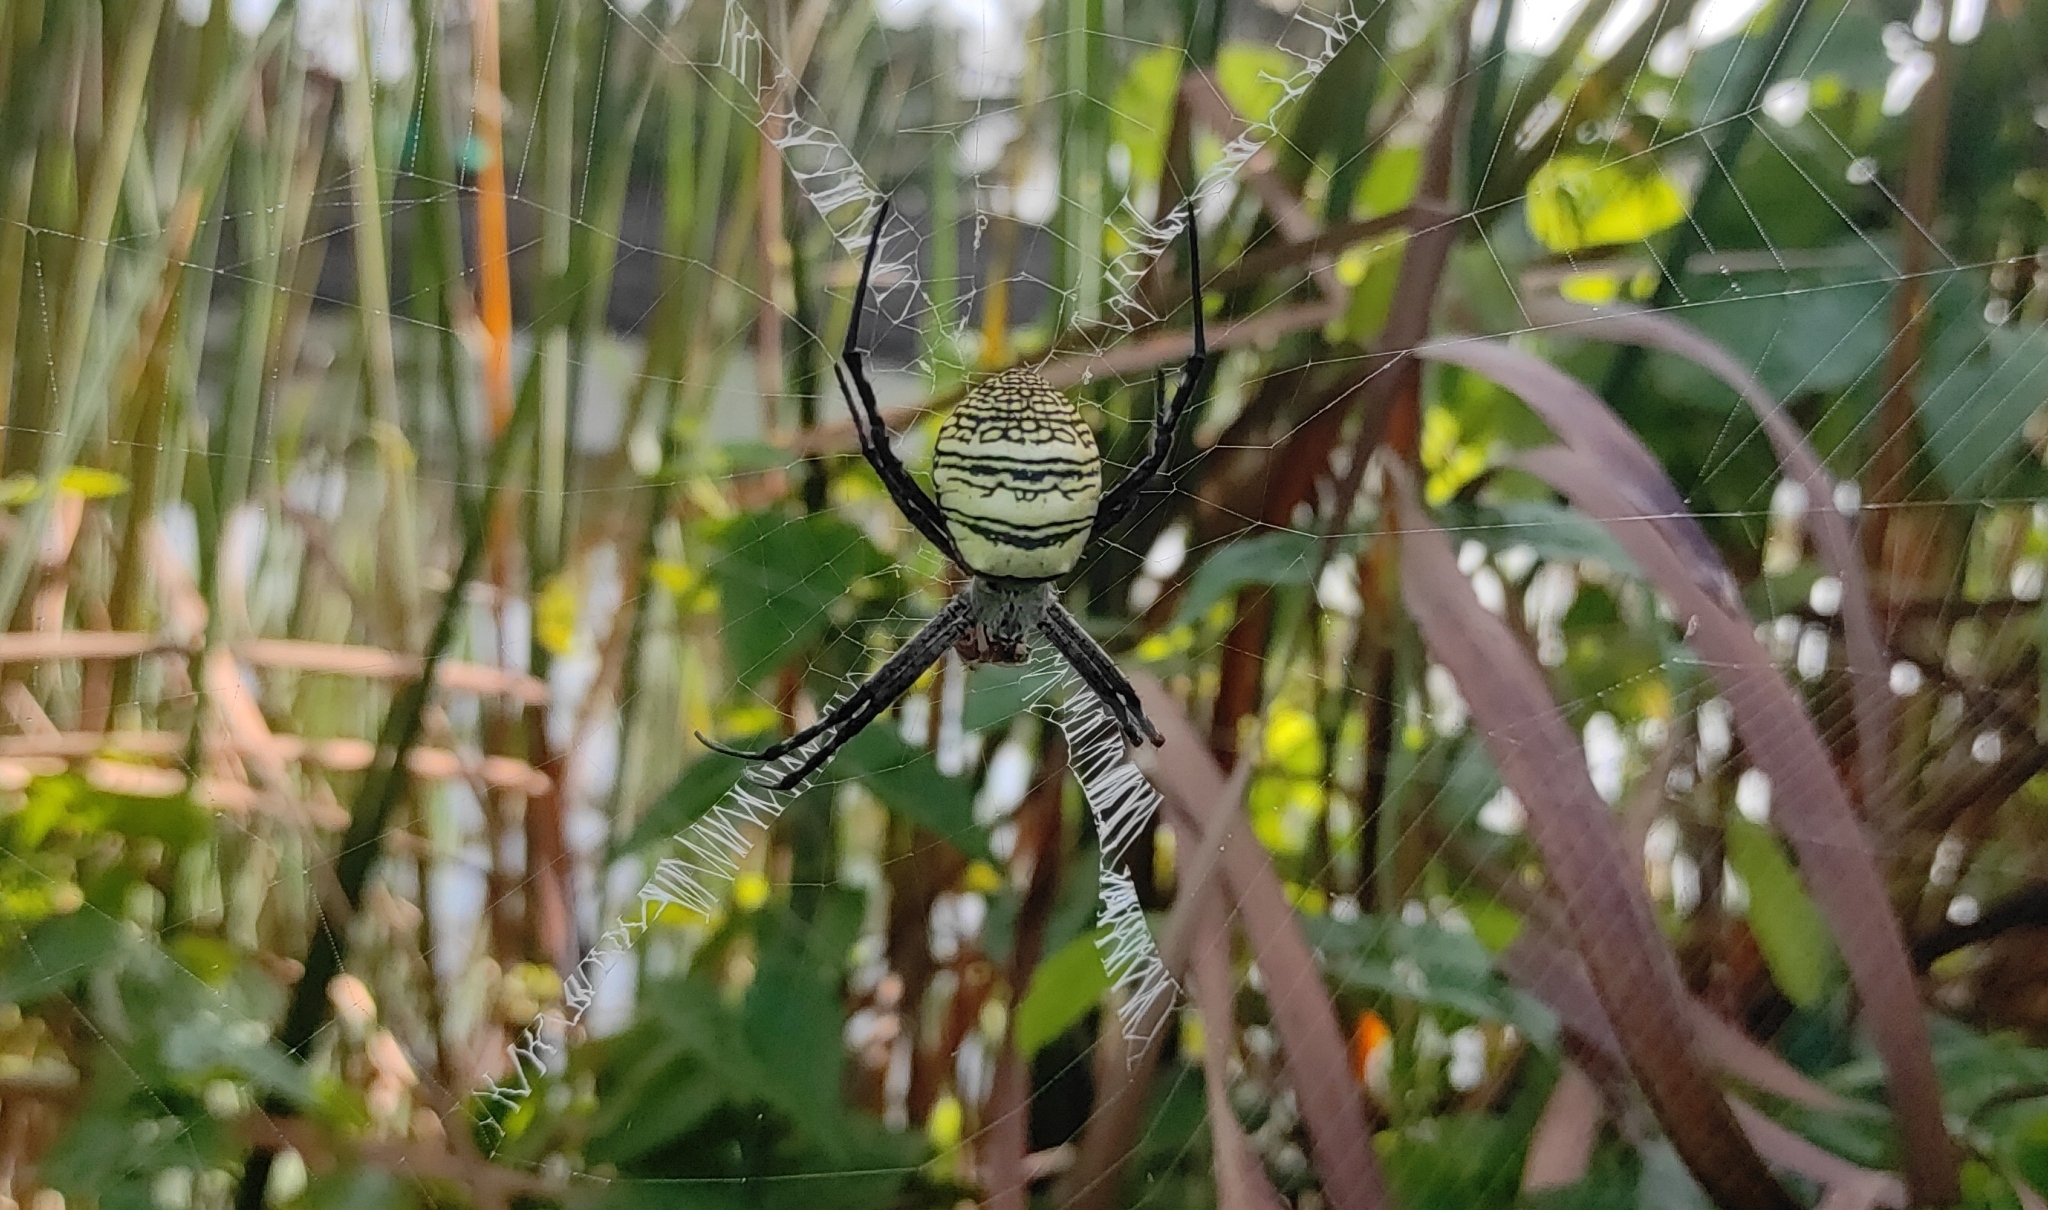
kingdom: Animalia
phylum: Arthropoda
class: Arachnida
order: Araneae
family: Araneidae
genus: Argiope
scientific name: Argiope aemula
